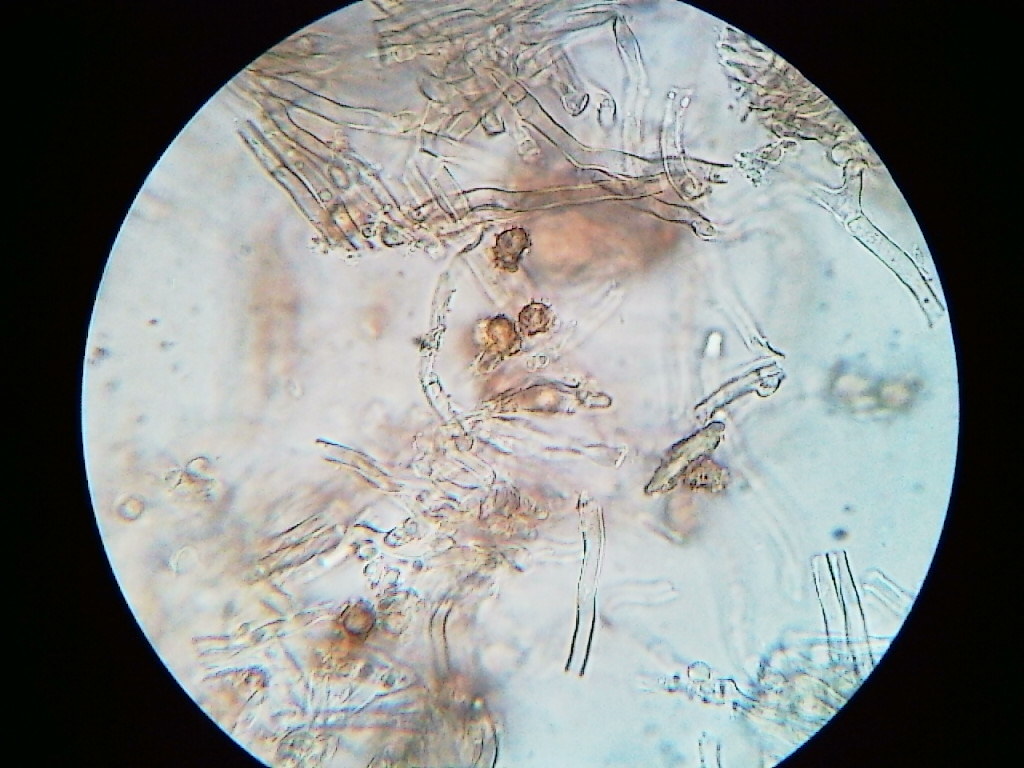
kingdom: Fungi
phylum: Basidiomycota
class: Agaricomycetes
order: Thelephorales
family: Thelephoraceae
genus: Thelephora
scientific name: Thelephora regularis
